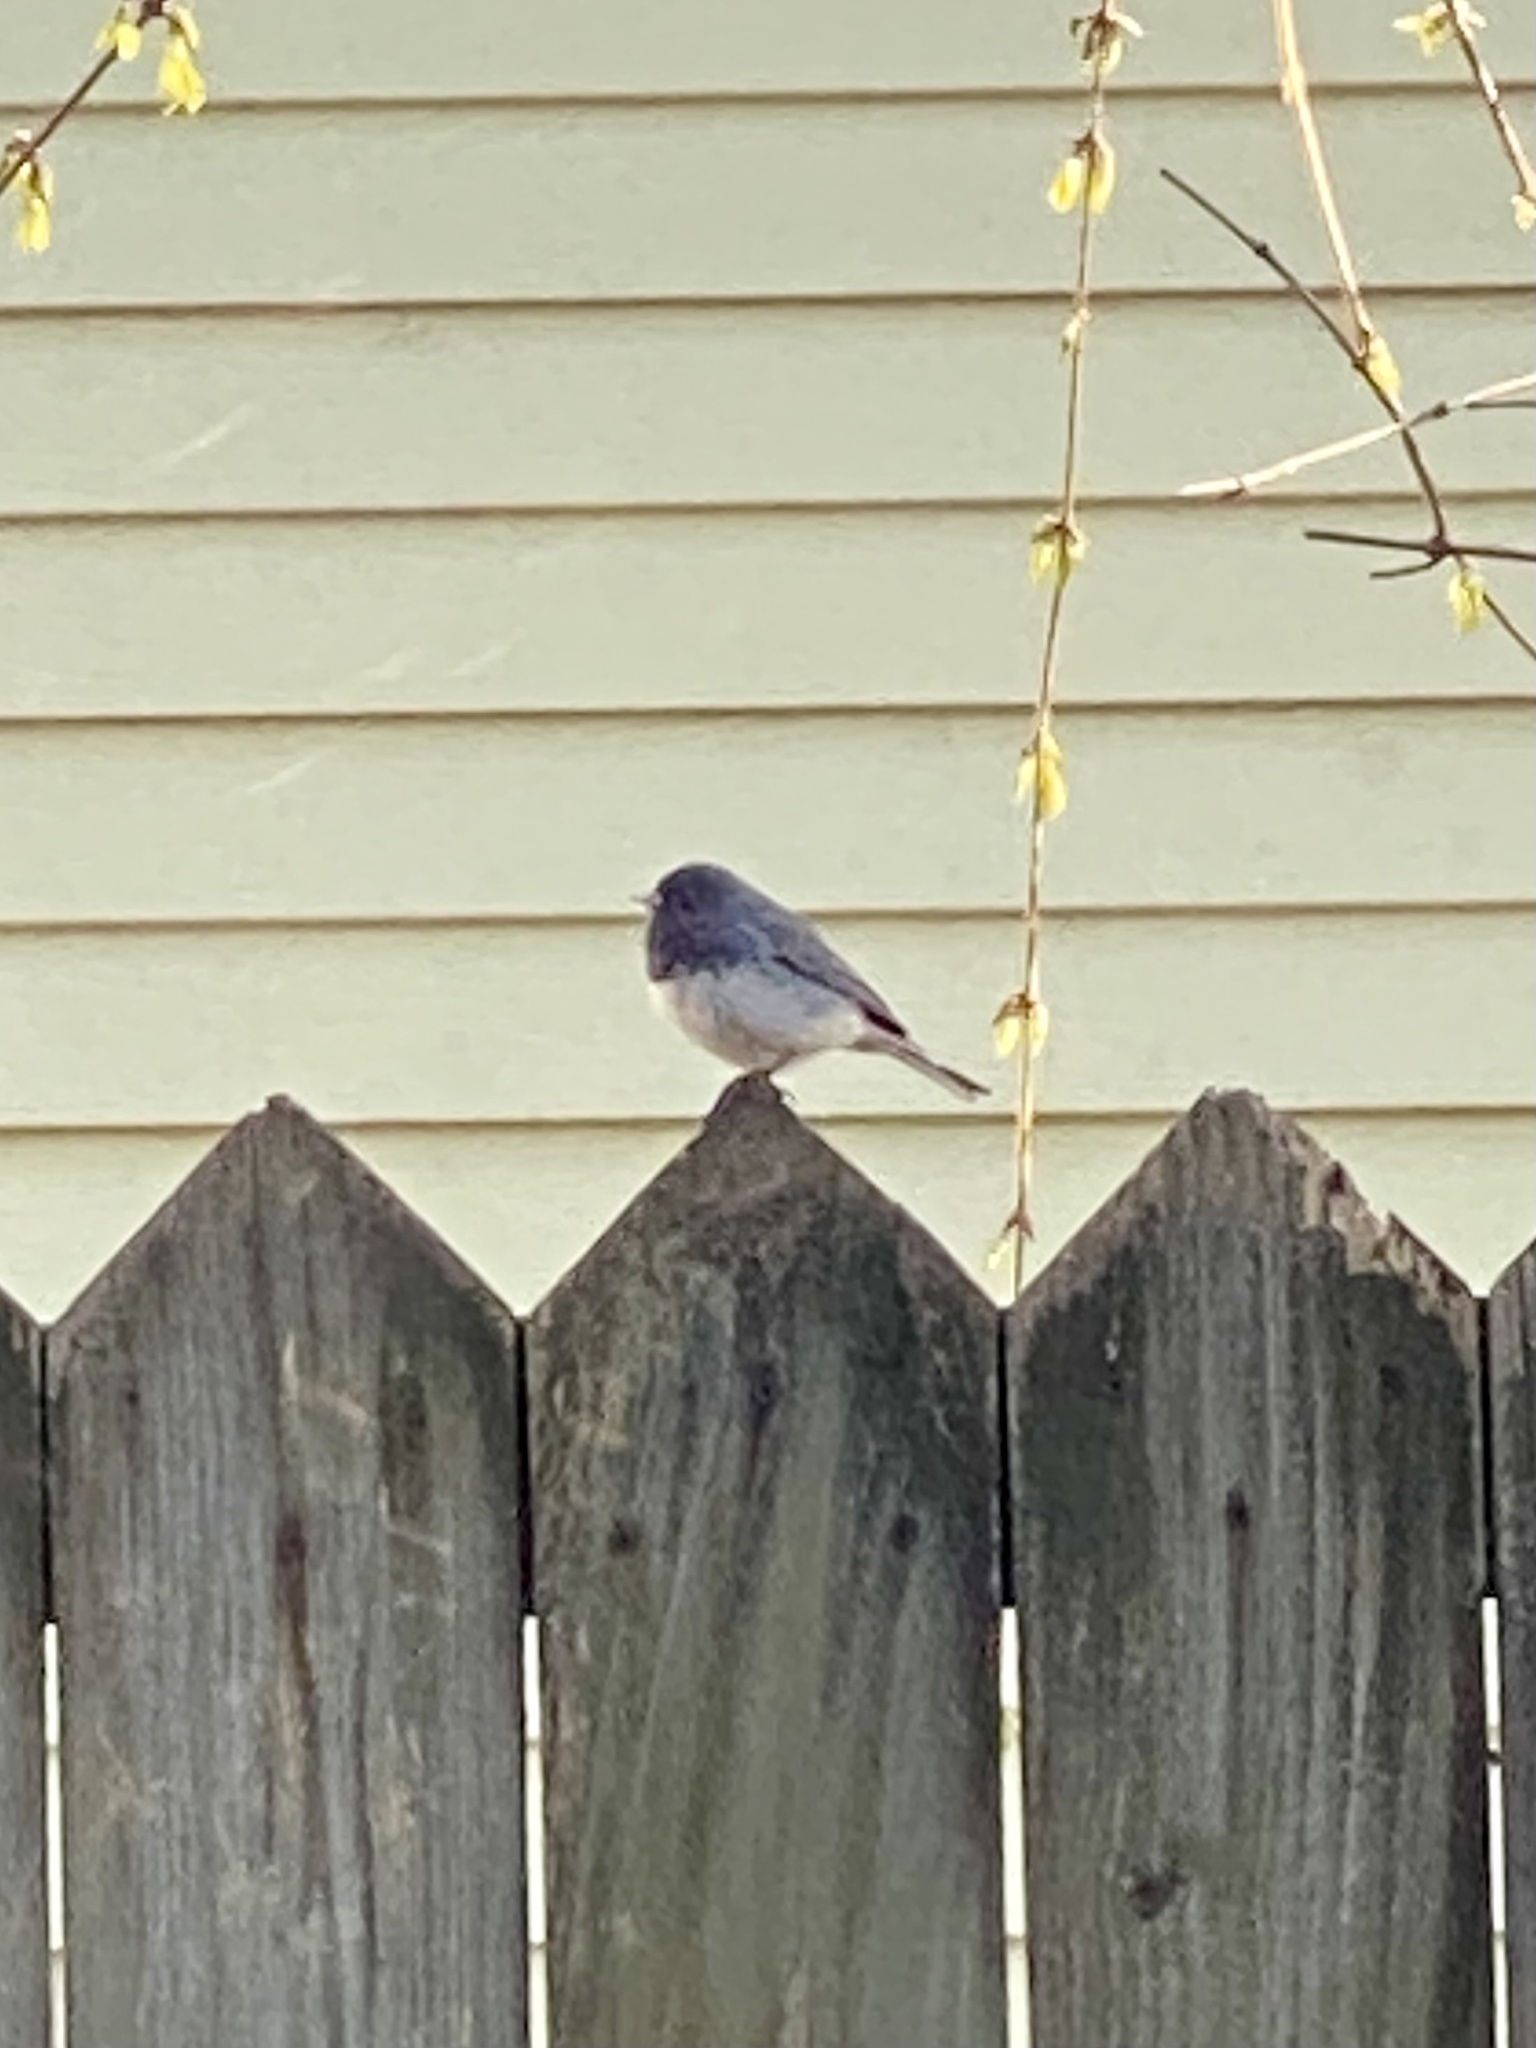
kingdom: Animalia
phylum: Chordata
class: Aves
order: Passeriformes
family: Passerellidae
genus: Junco
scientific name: Junco hyemalis
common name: Dark-eyed junco
